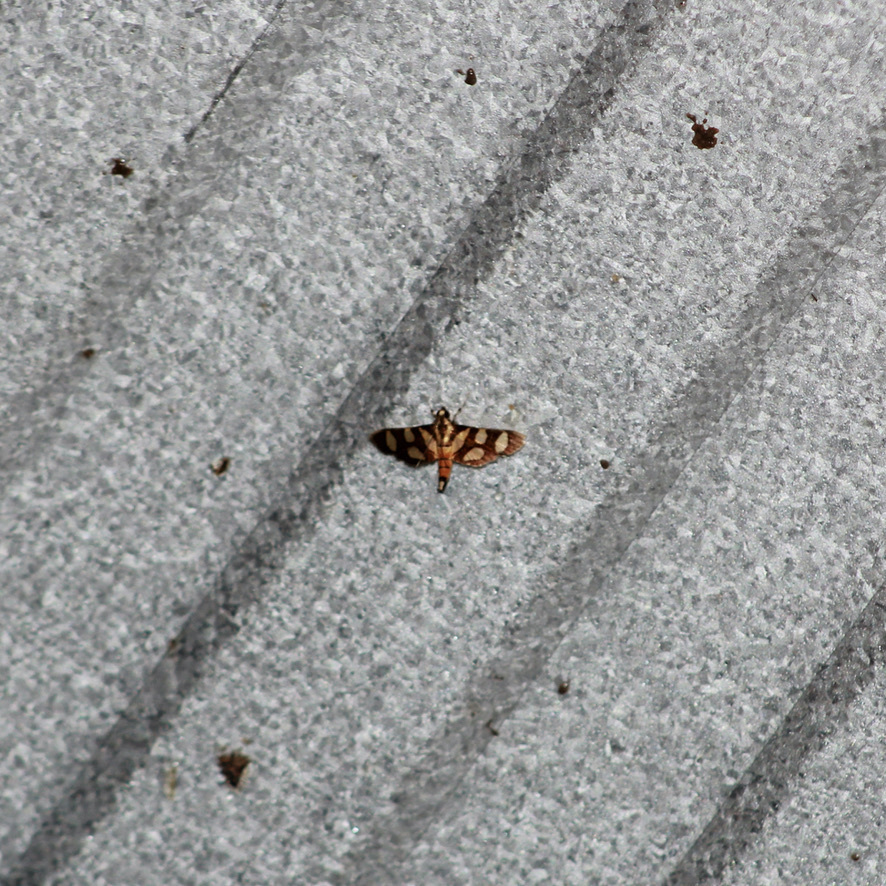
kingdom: Animalia
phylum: Arthropoda
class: Insecta
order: Lepidoptera
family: Crambidae
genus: Syngamia
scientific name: Syngamia florella
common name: Orange-spotted flower moth
